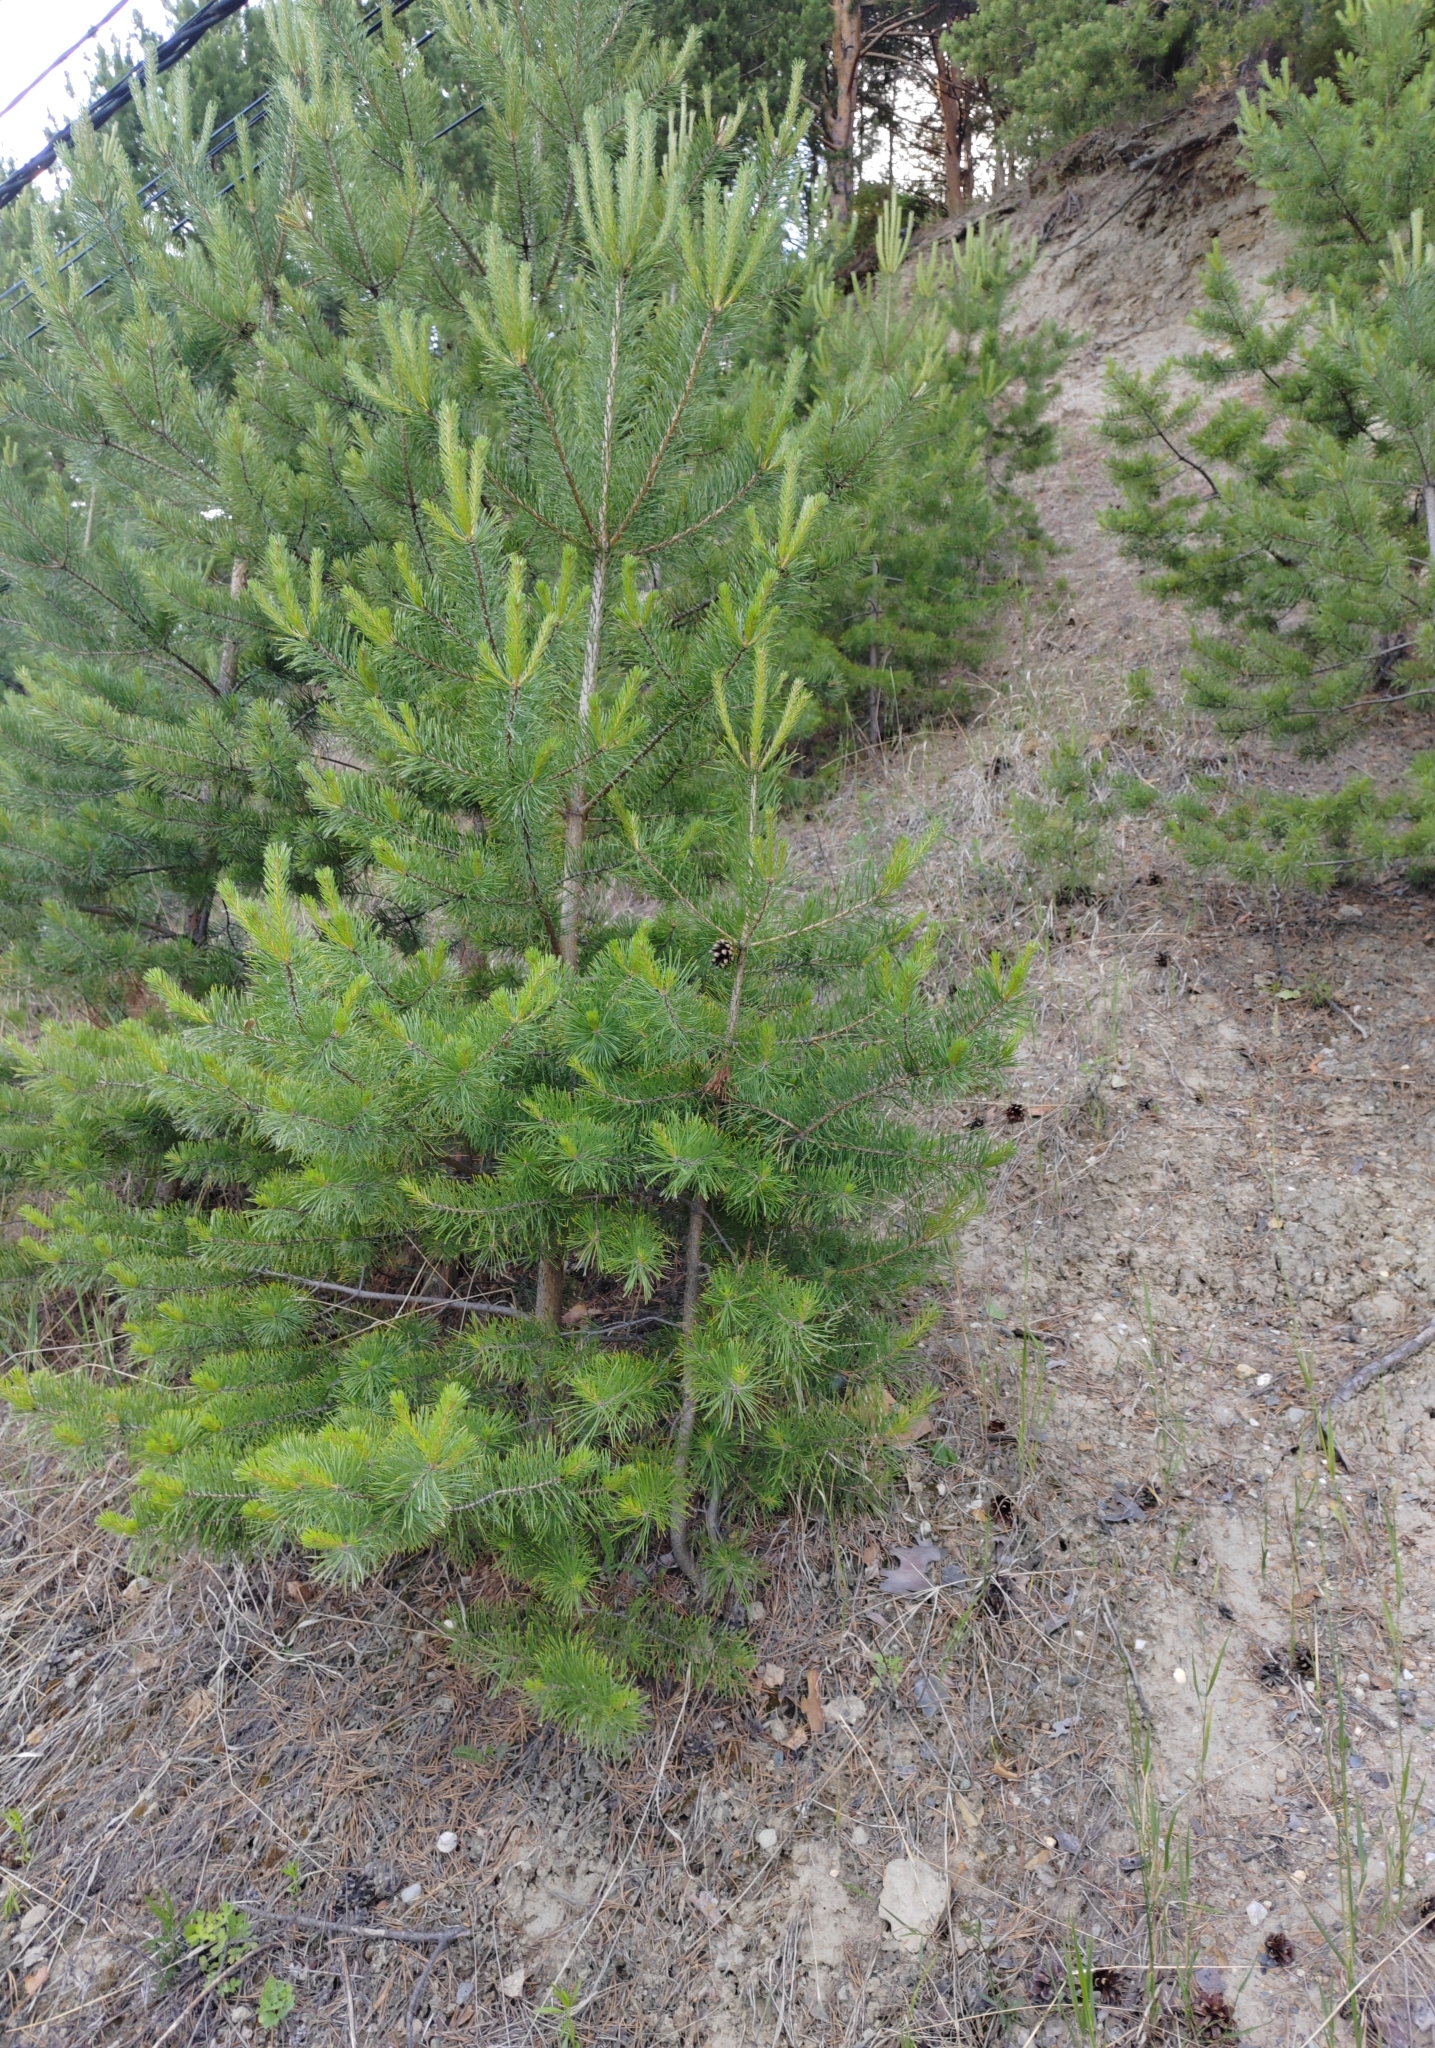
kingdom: Plantae
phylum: Tracheophyta
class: Pinopsida
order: Pinales
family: Pinaceae
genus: Pinus
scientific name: Pinus sylvestris
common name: Scots pine
